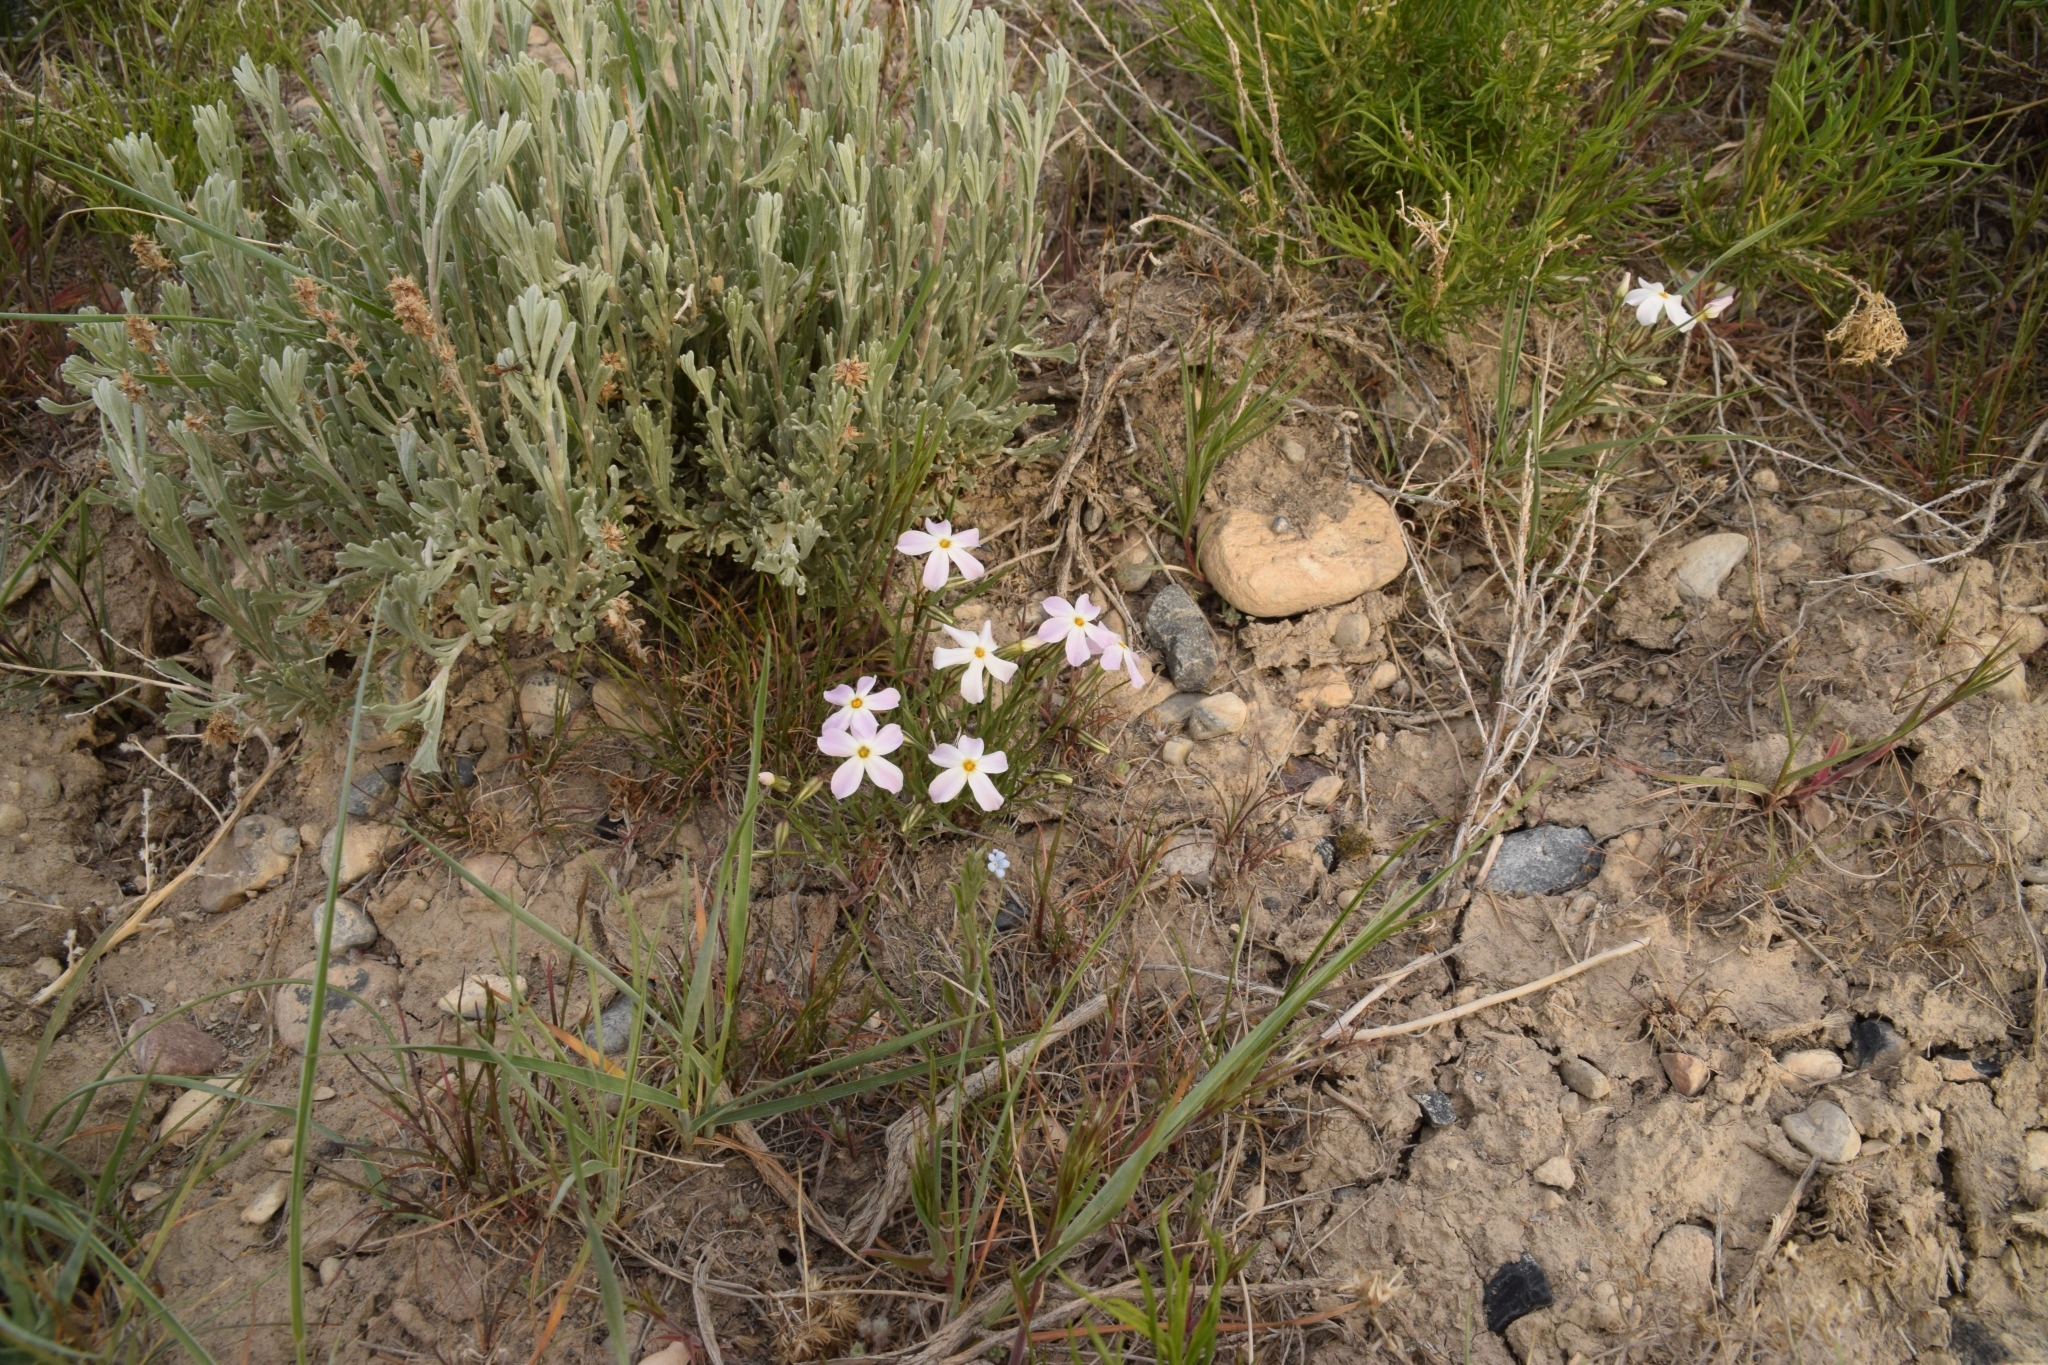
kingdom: Plantae
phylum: Tracheophyta
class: Magnoliopsida
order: Ericales
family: Polemoniaceae
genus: Phlox
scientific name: Phlox longifolia
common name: Longleaf phlox
